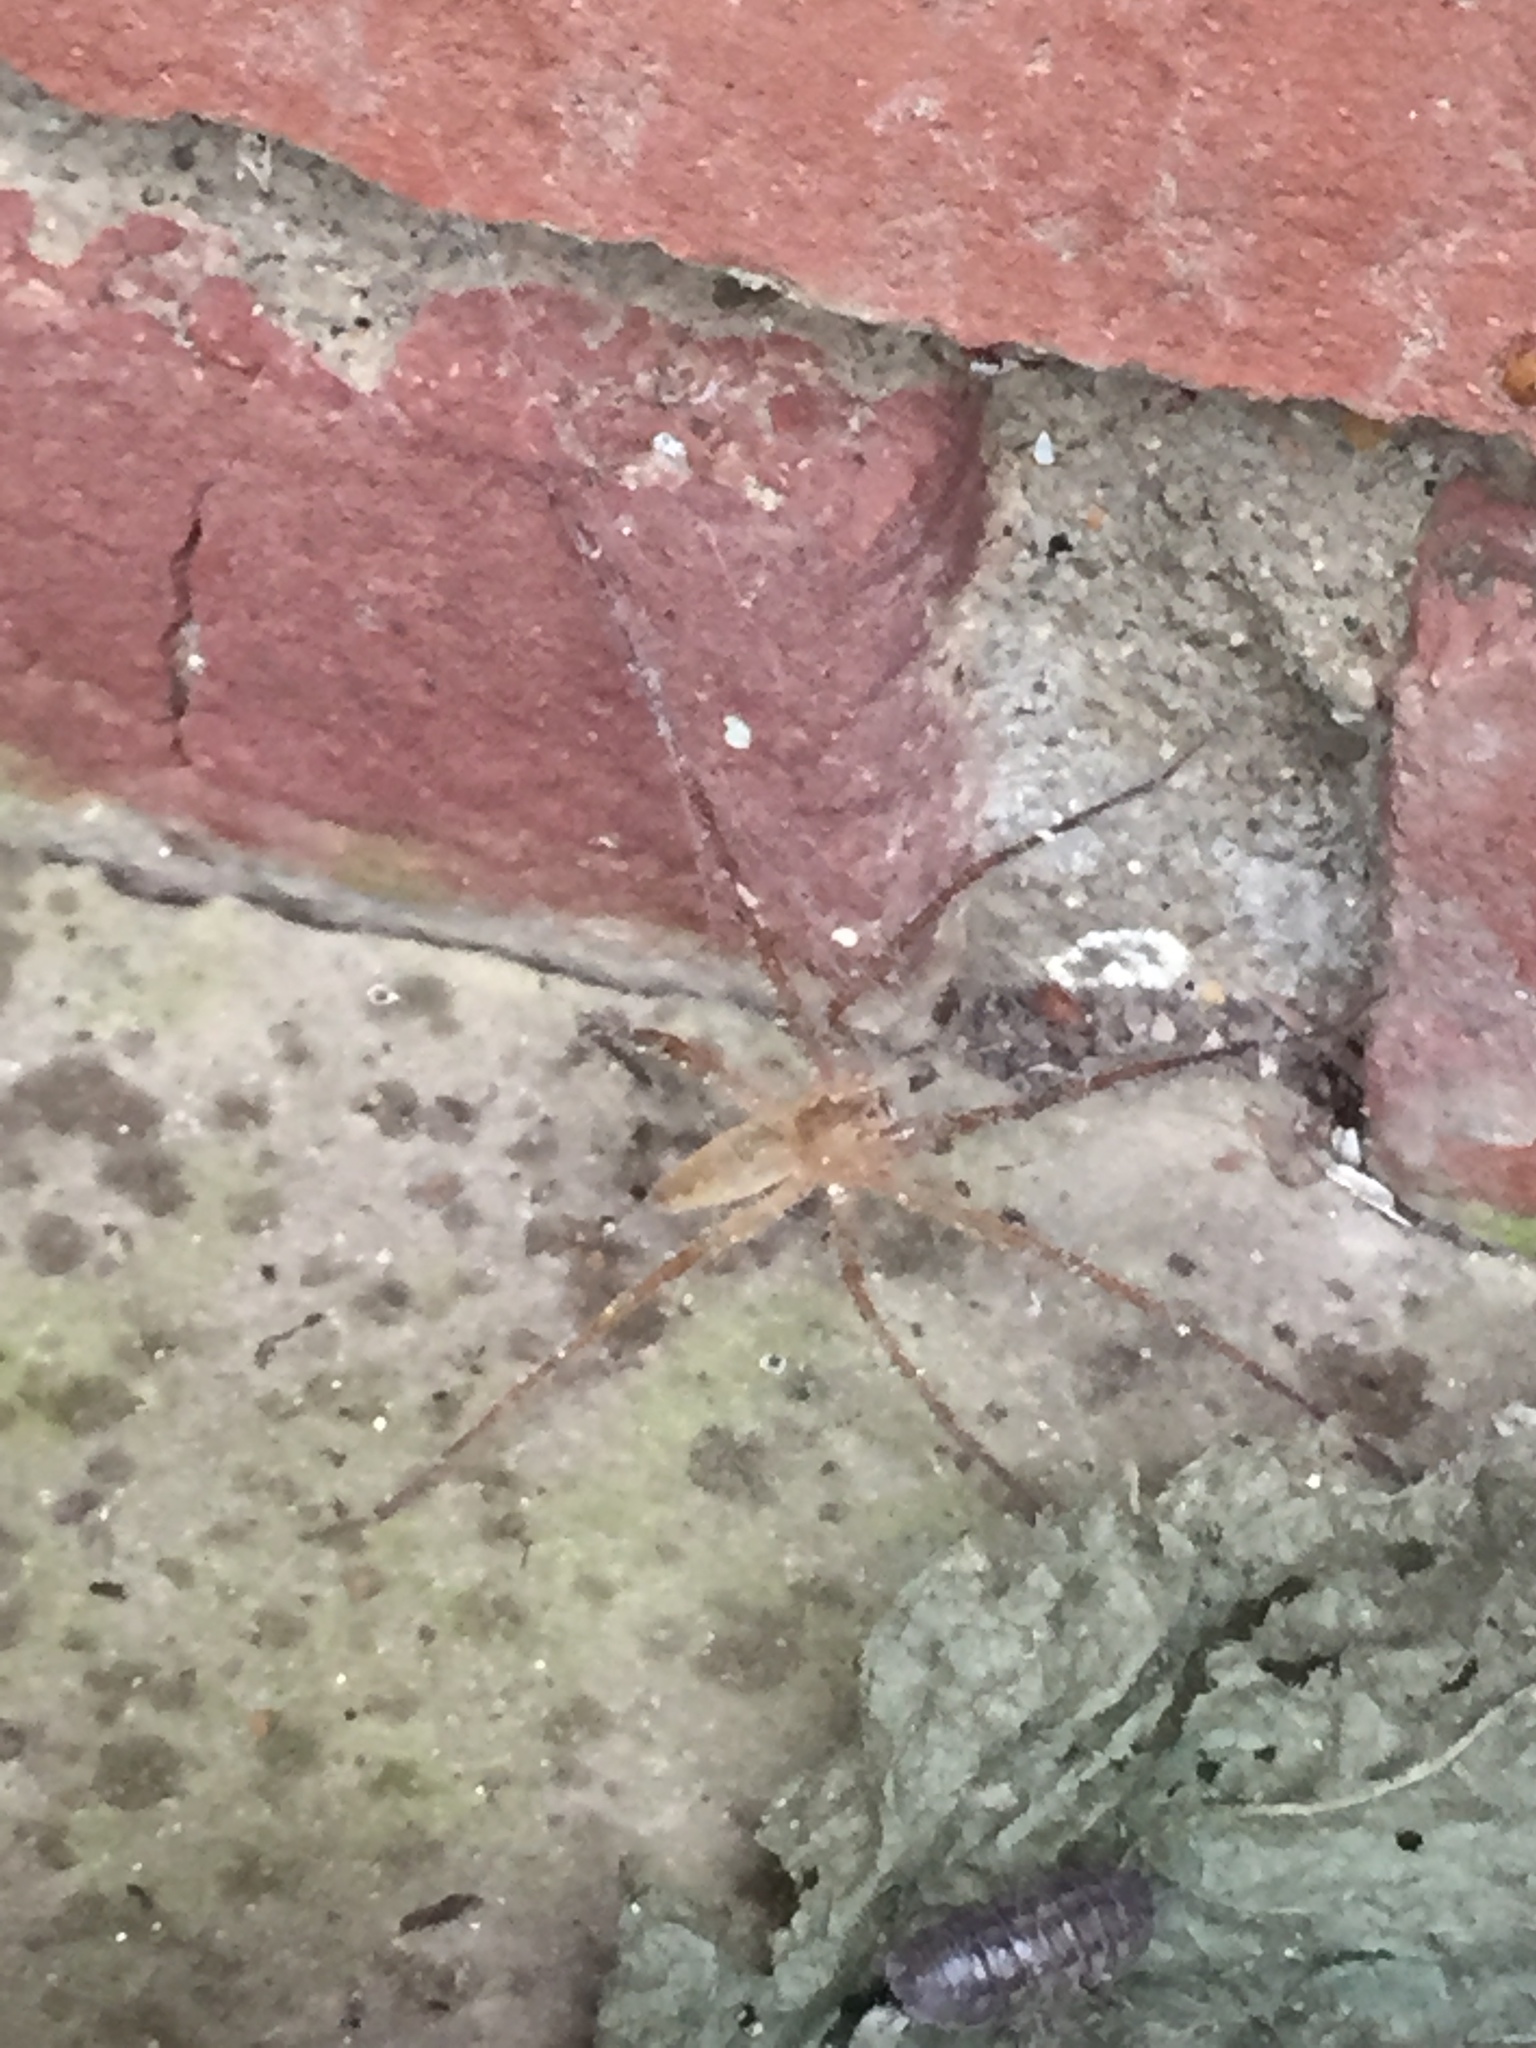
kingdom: Animalia
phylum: Arthropoda
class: Arachnida
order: Araneae
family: Pisauridae
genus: Pisaurina
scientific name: Pisaurina mira
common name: American nursery web spider
